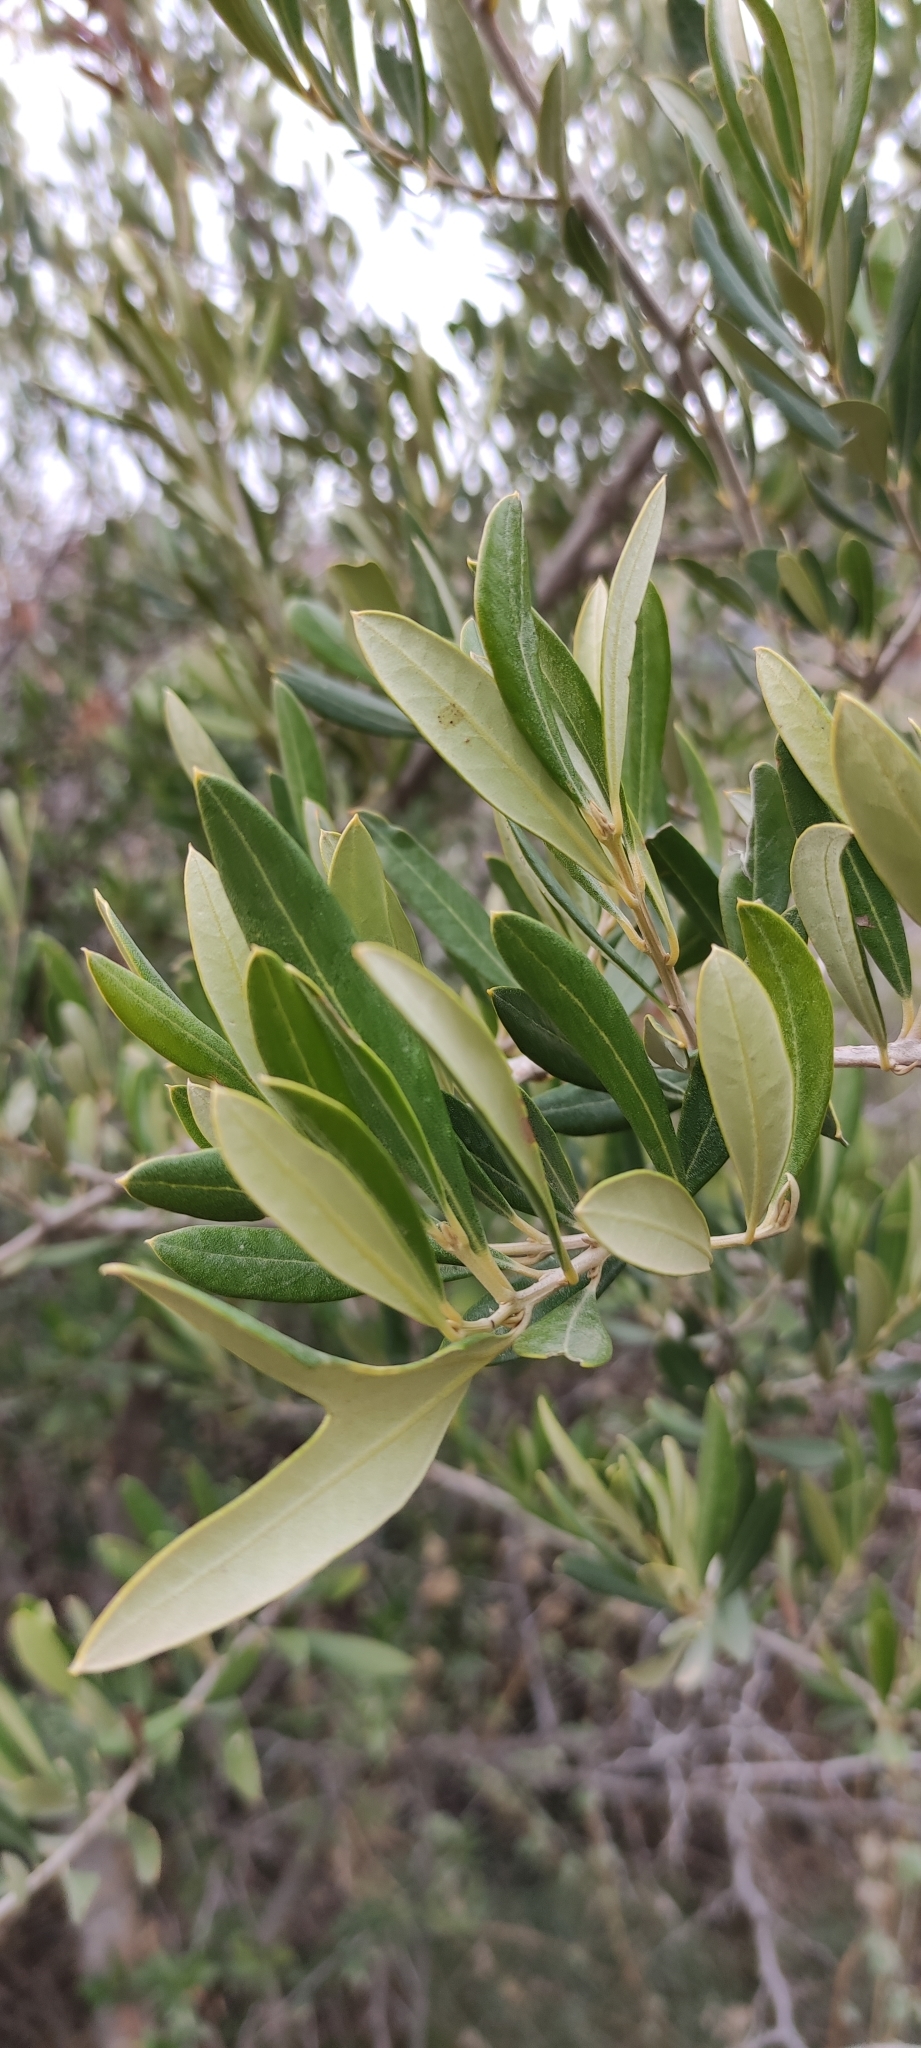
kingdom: Plantae
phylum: Tracheophyta
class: Magnoliopsida
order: Lamiales
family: Oleaceae
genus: Olea
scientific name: Olea europaea
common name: Olive
